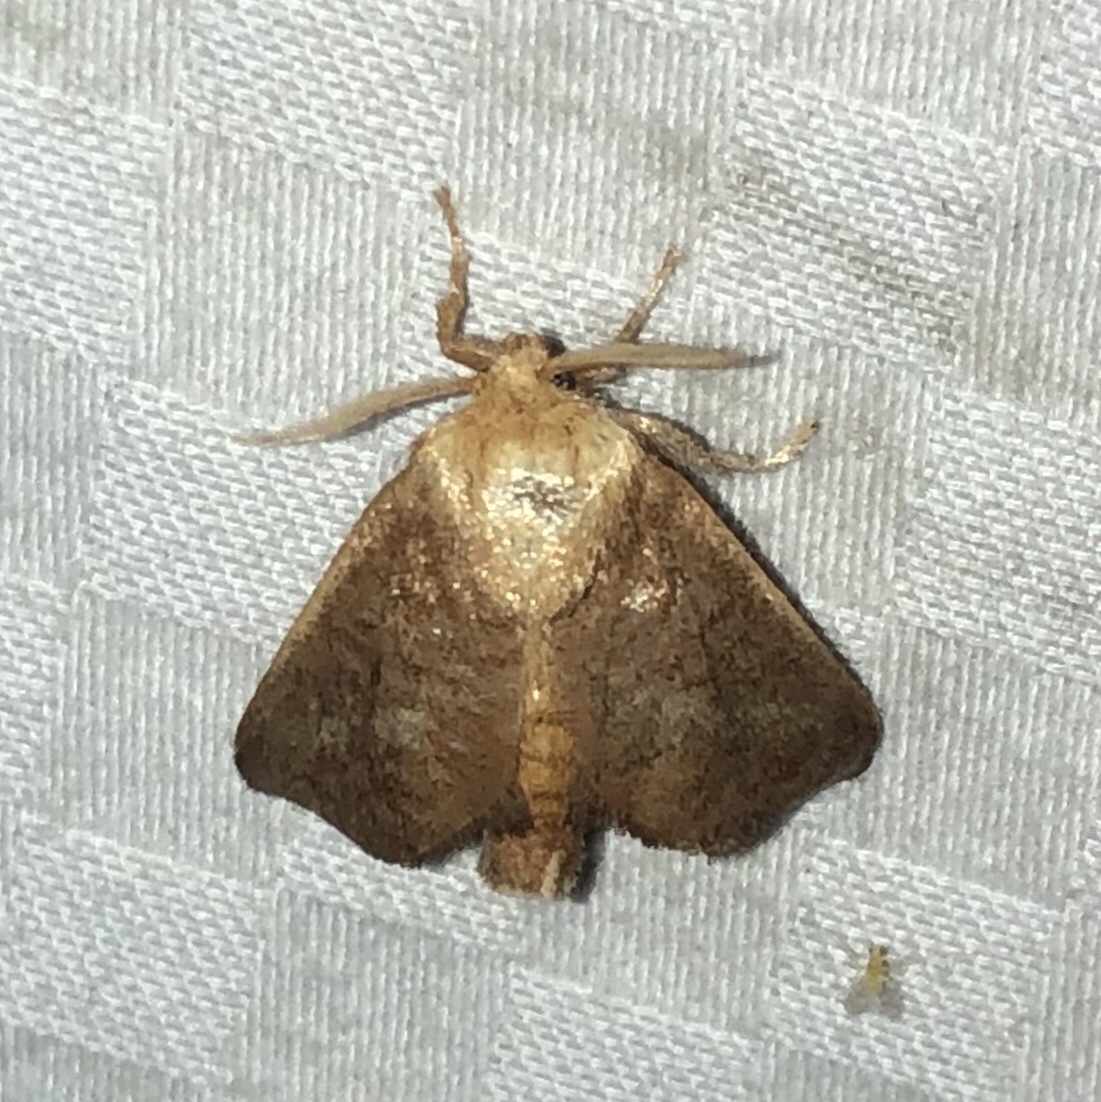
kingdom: Animalia
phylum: Arthropoda
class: Insecta
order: Lepidoptera
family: Limacodidae
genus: Isa
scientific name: Isa textula
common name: Crowned slug moth
